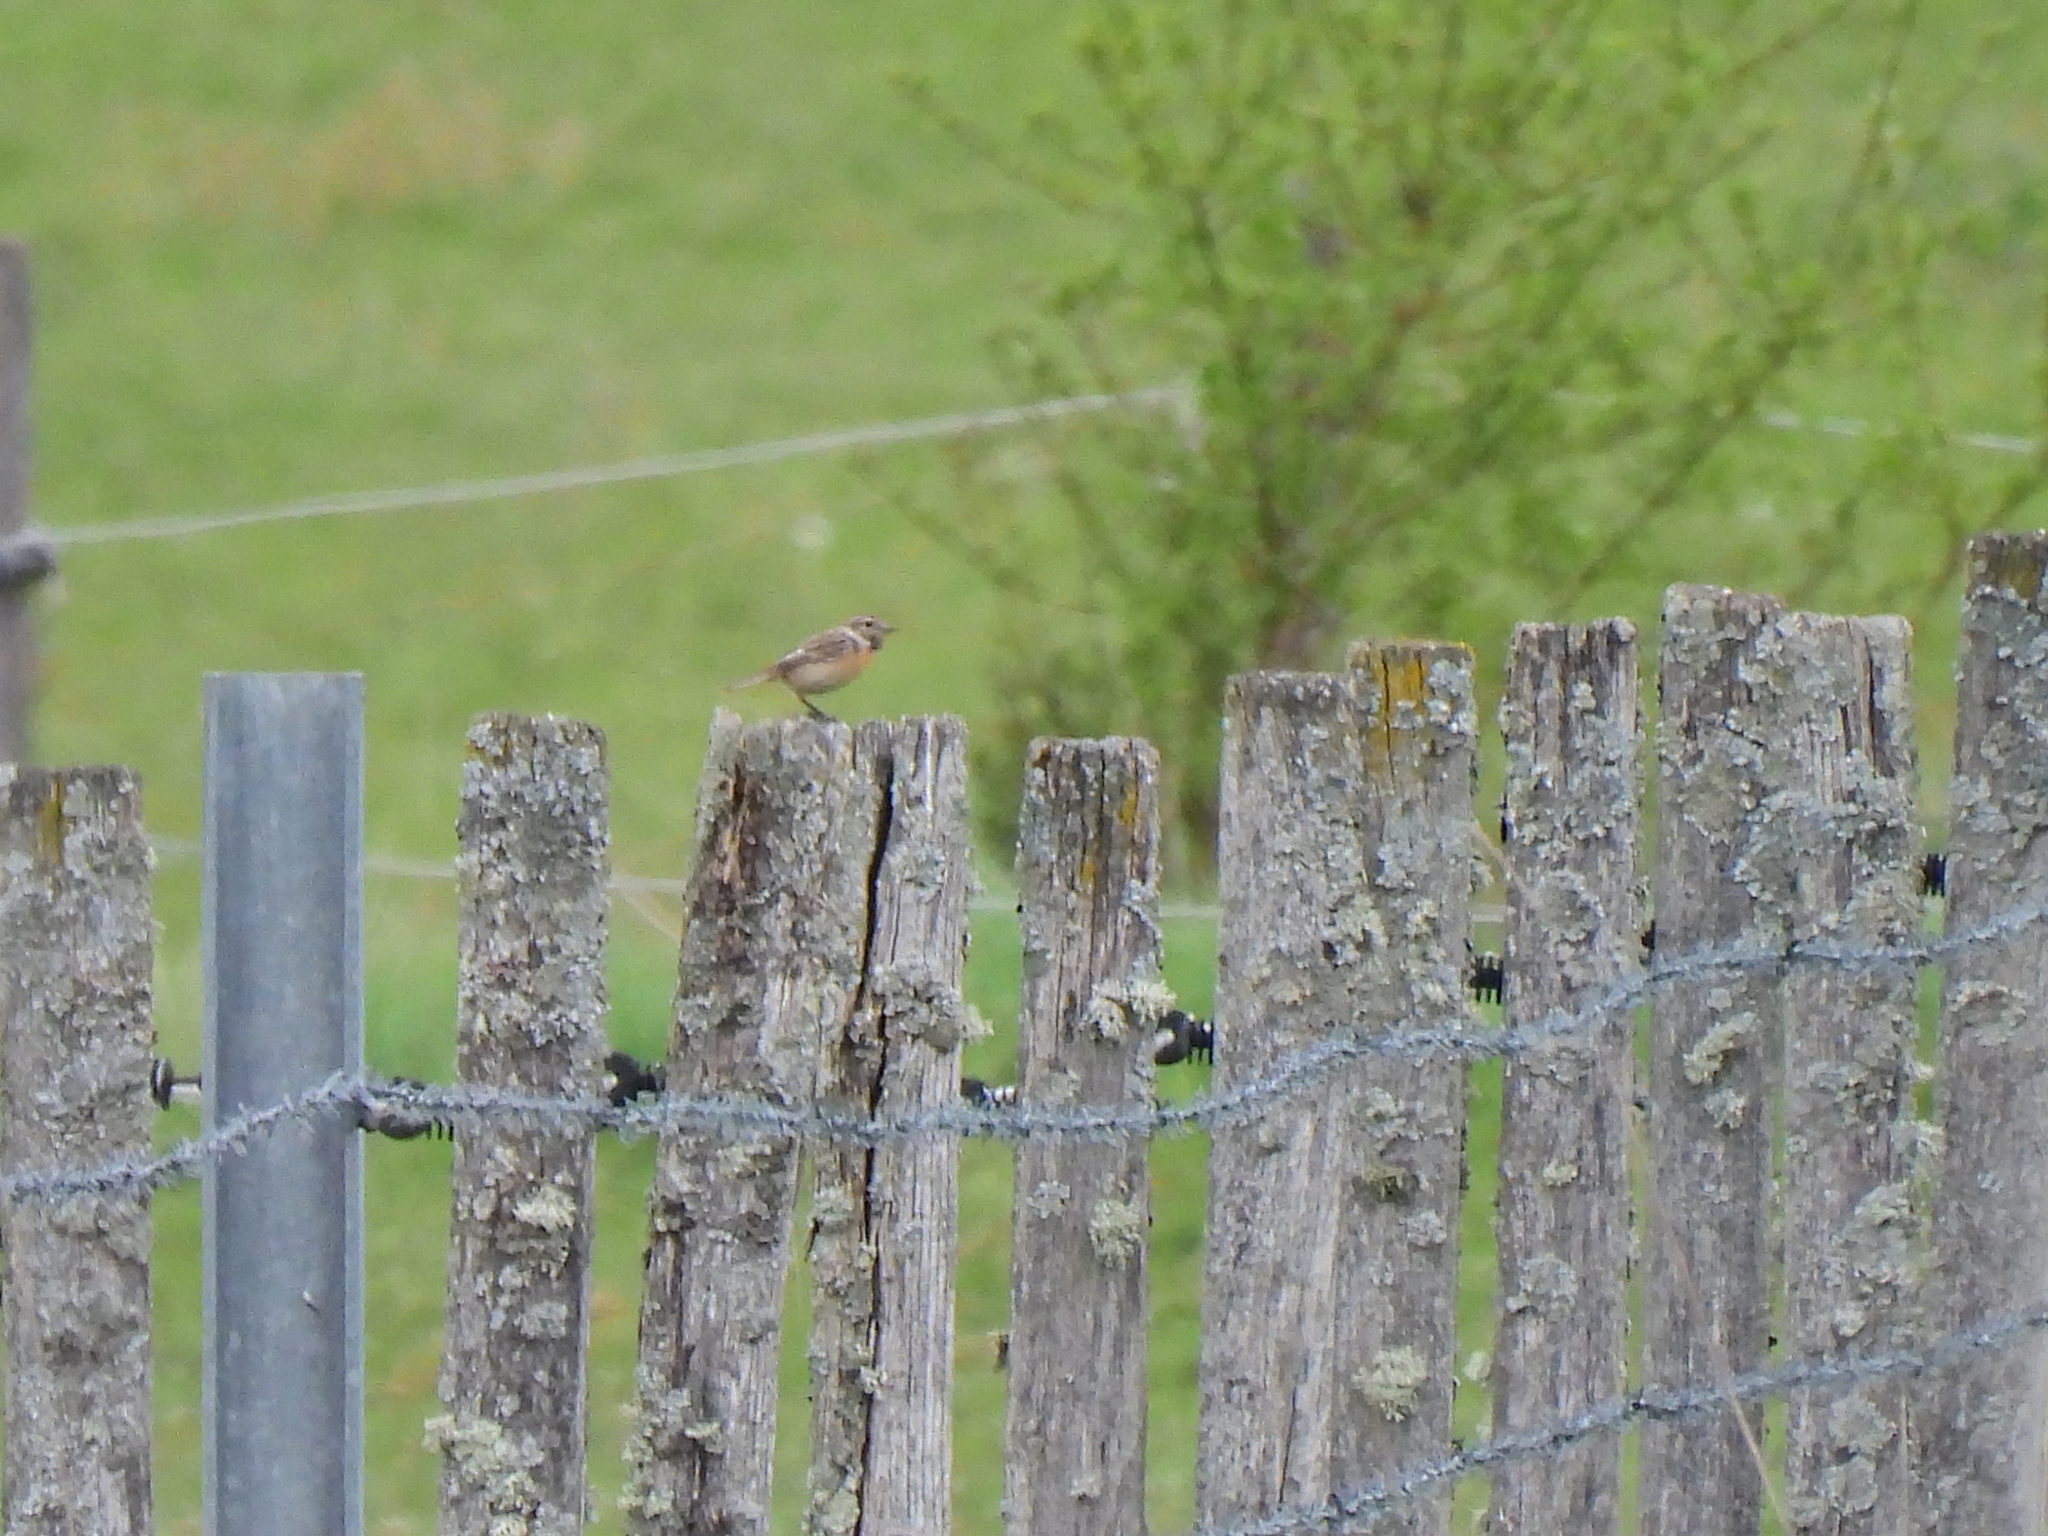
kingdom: Animalia
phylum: Chordata
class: Aves
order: Passeriformes
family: Muscicapidae
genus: Saxicola
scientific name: Saxicola rubicola
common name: European stonechat
